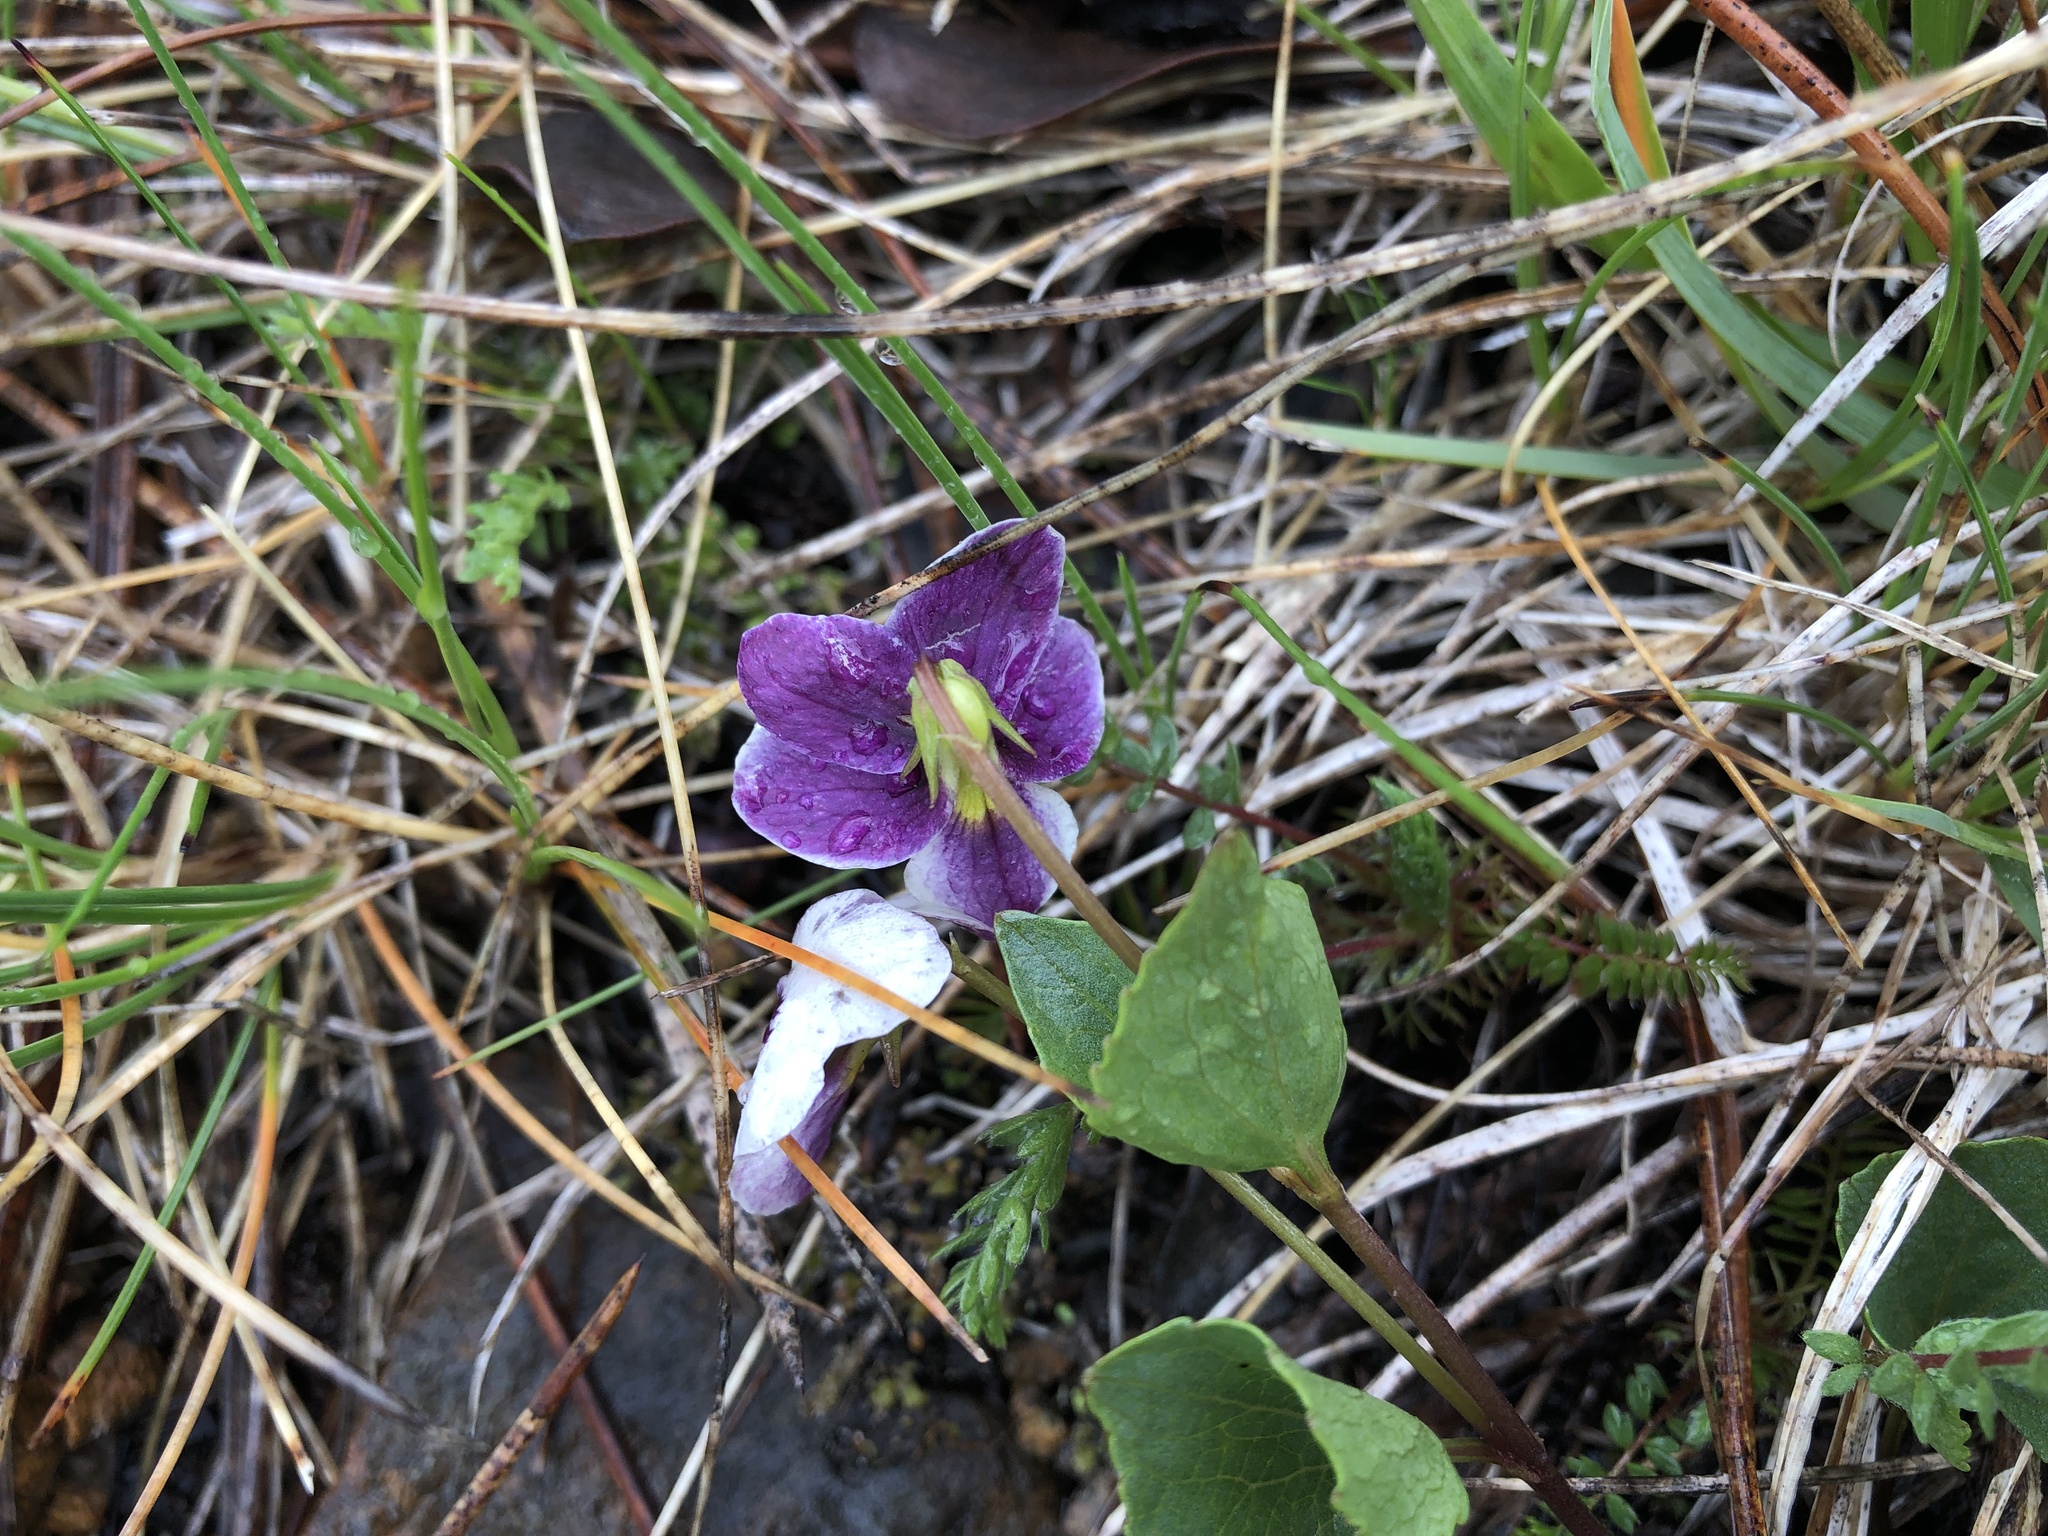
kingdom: Plantae
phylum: Tracheophyta
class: Magnoliopsida
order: Malpighiales
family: Violaceae
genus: Viola
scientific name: Viola cuneata
